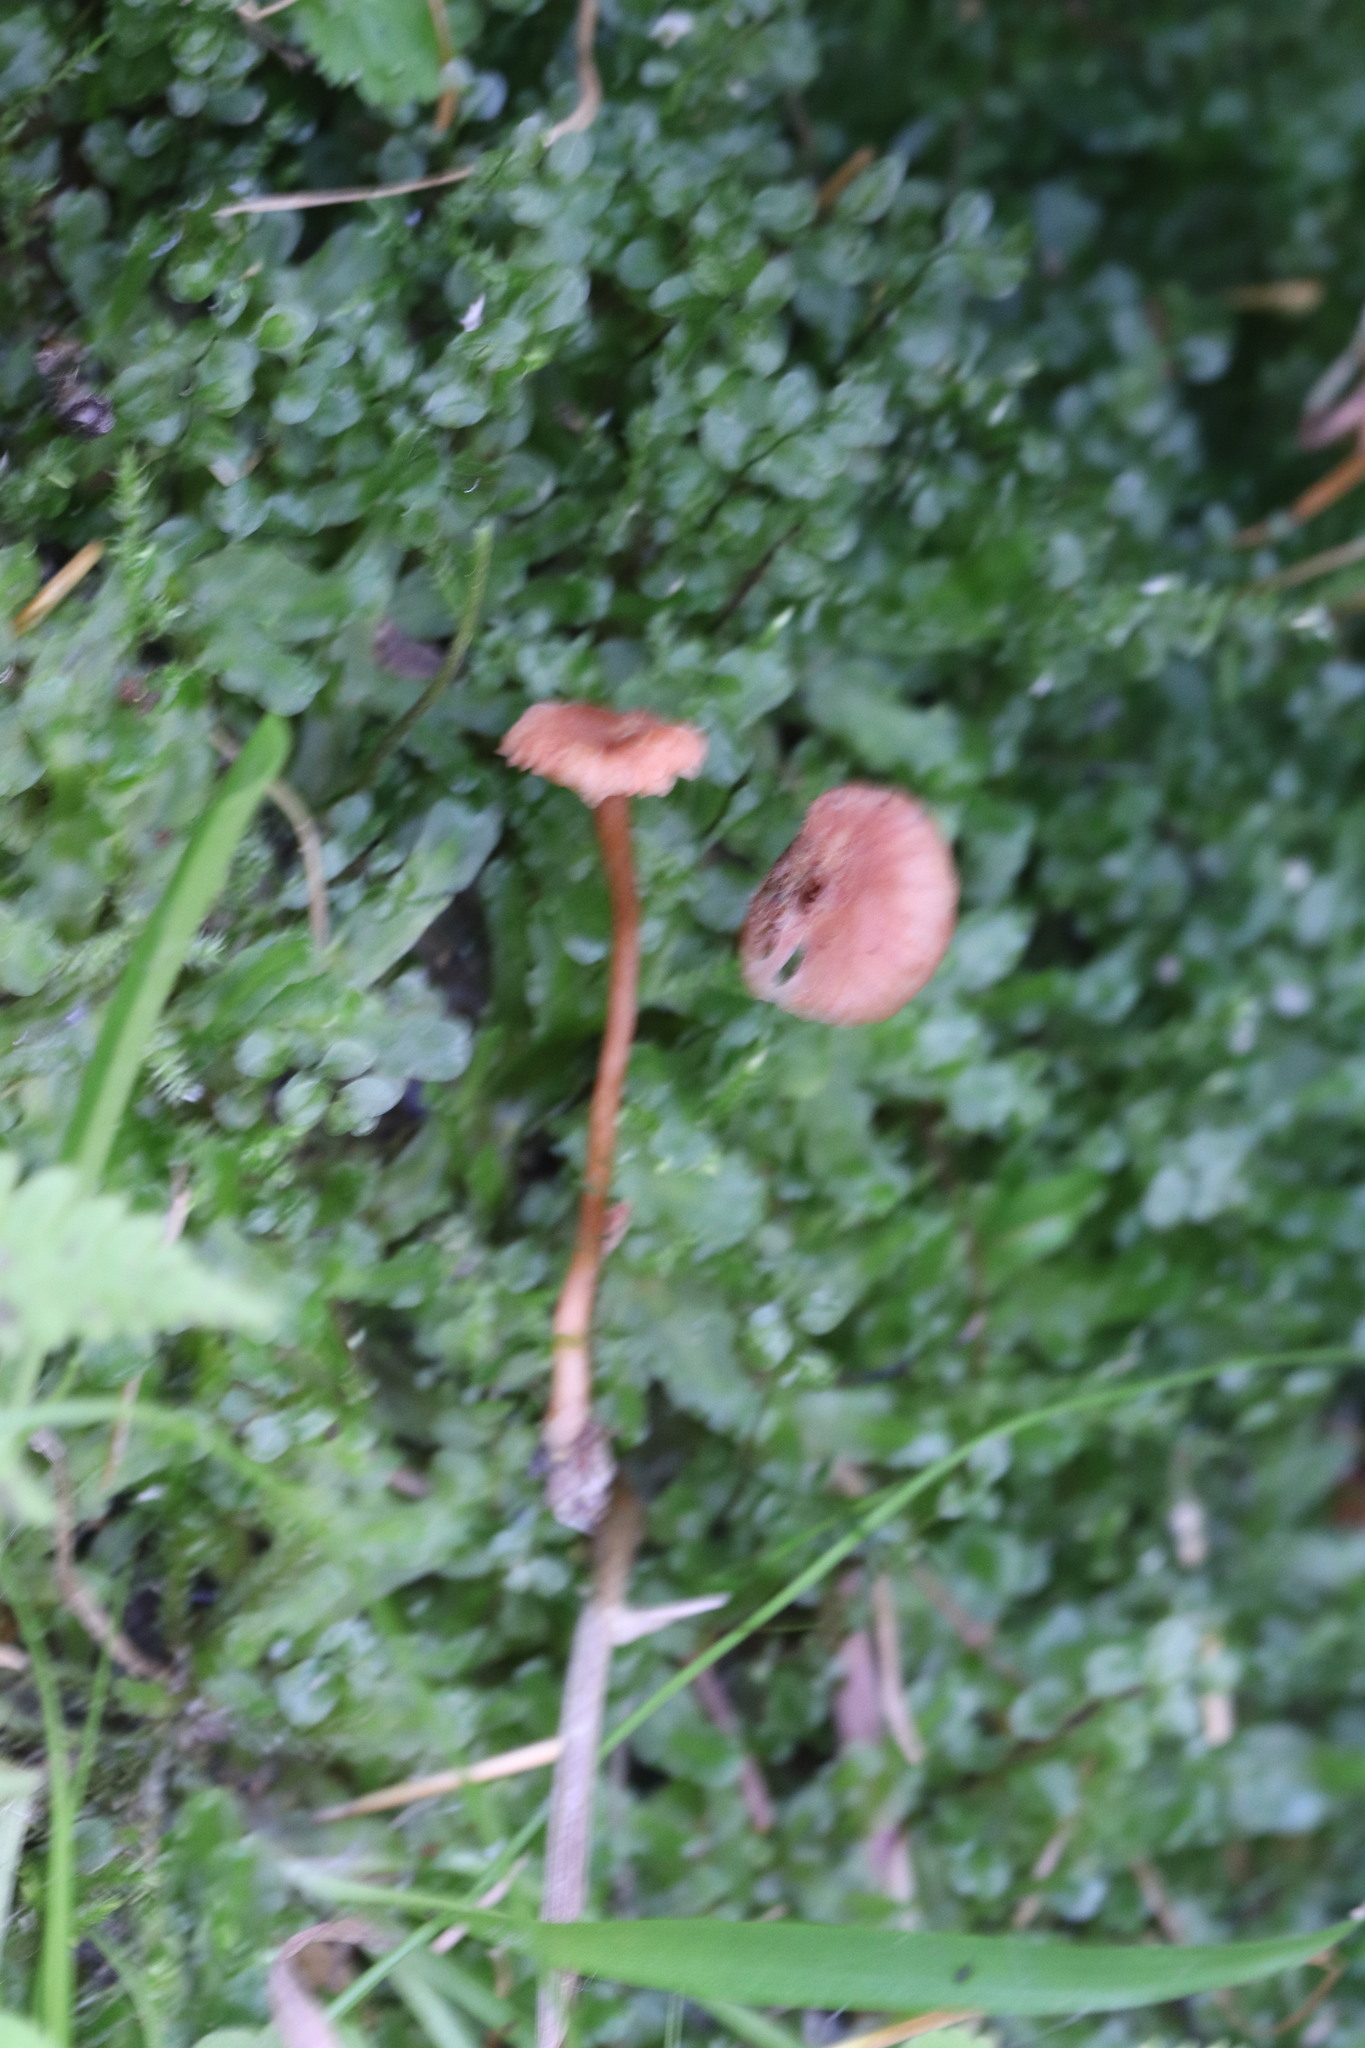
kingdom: Fungi
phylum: Basidiomycota
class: Agaricomycetes
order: Agaricales
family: Hydnangiaceae
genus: Laccaria
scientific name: Laccaria laccata
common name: Deceiver
